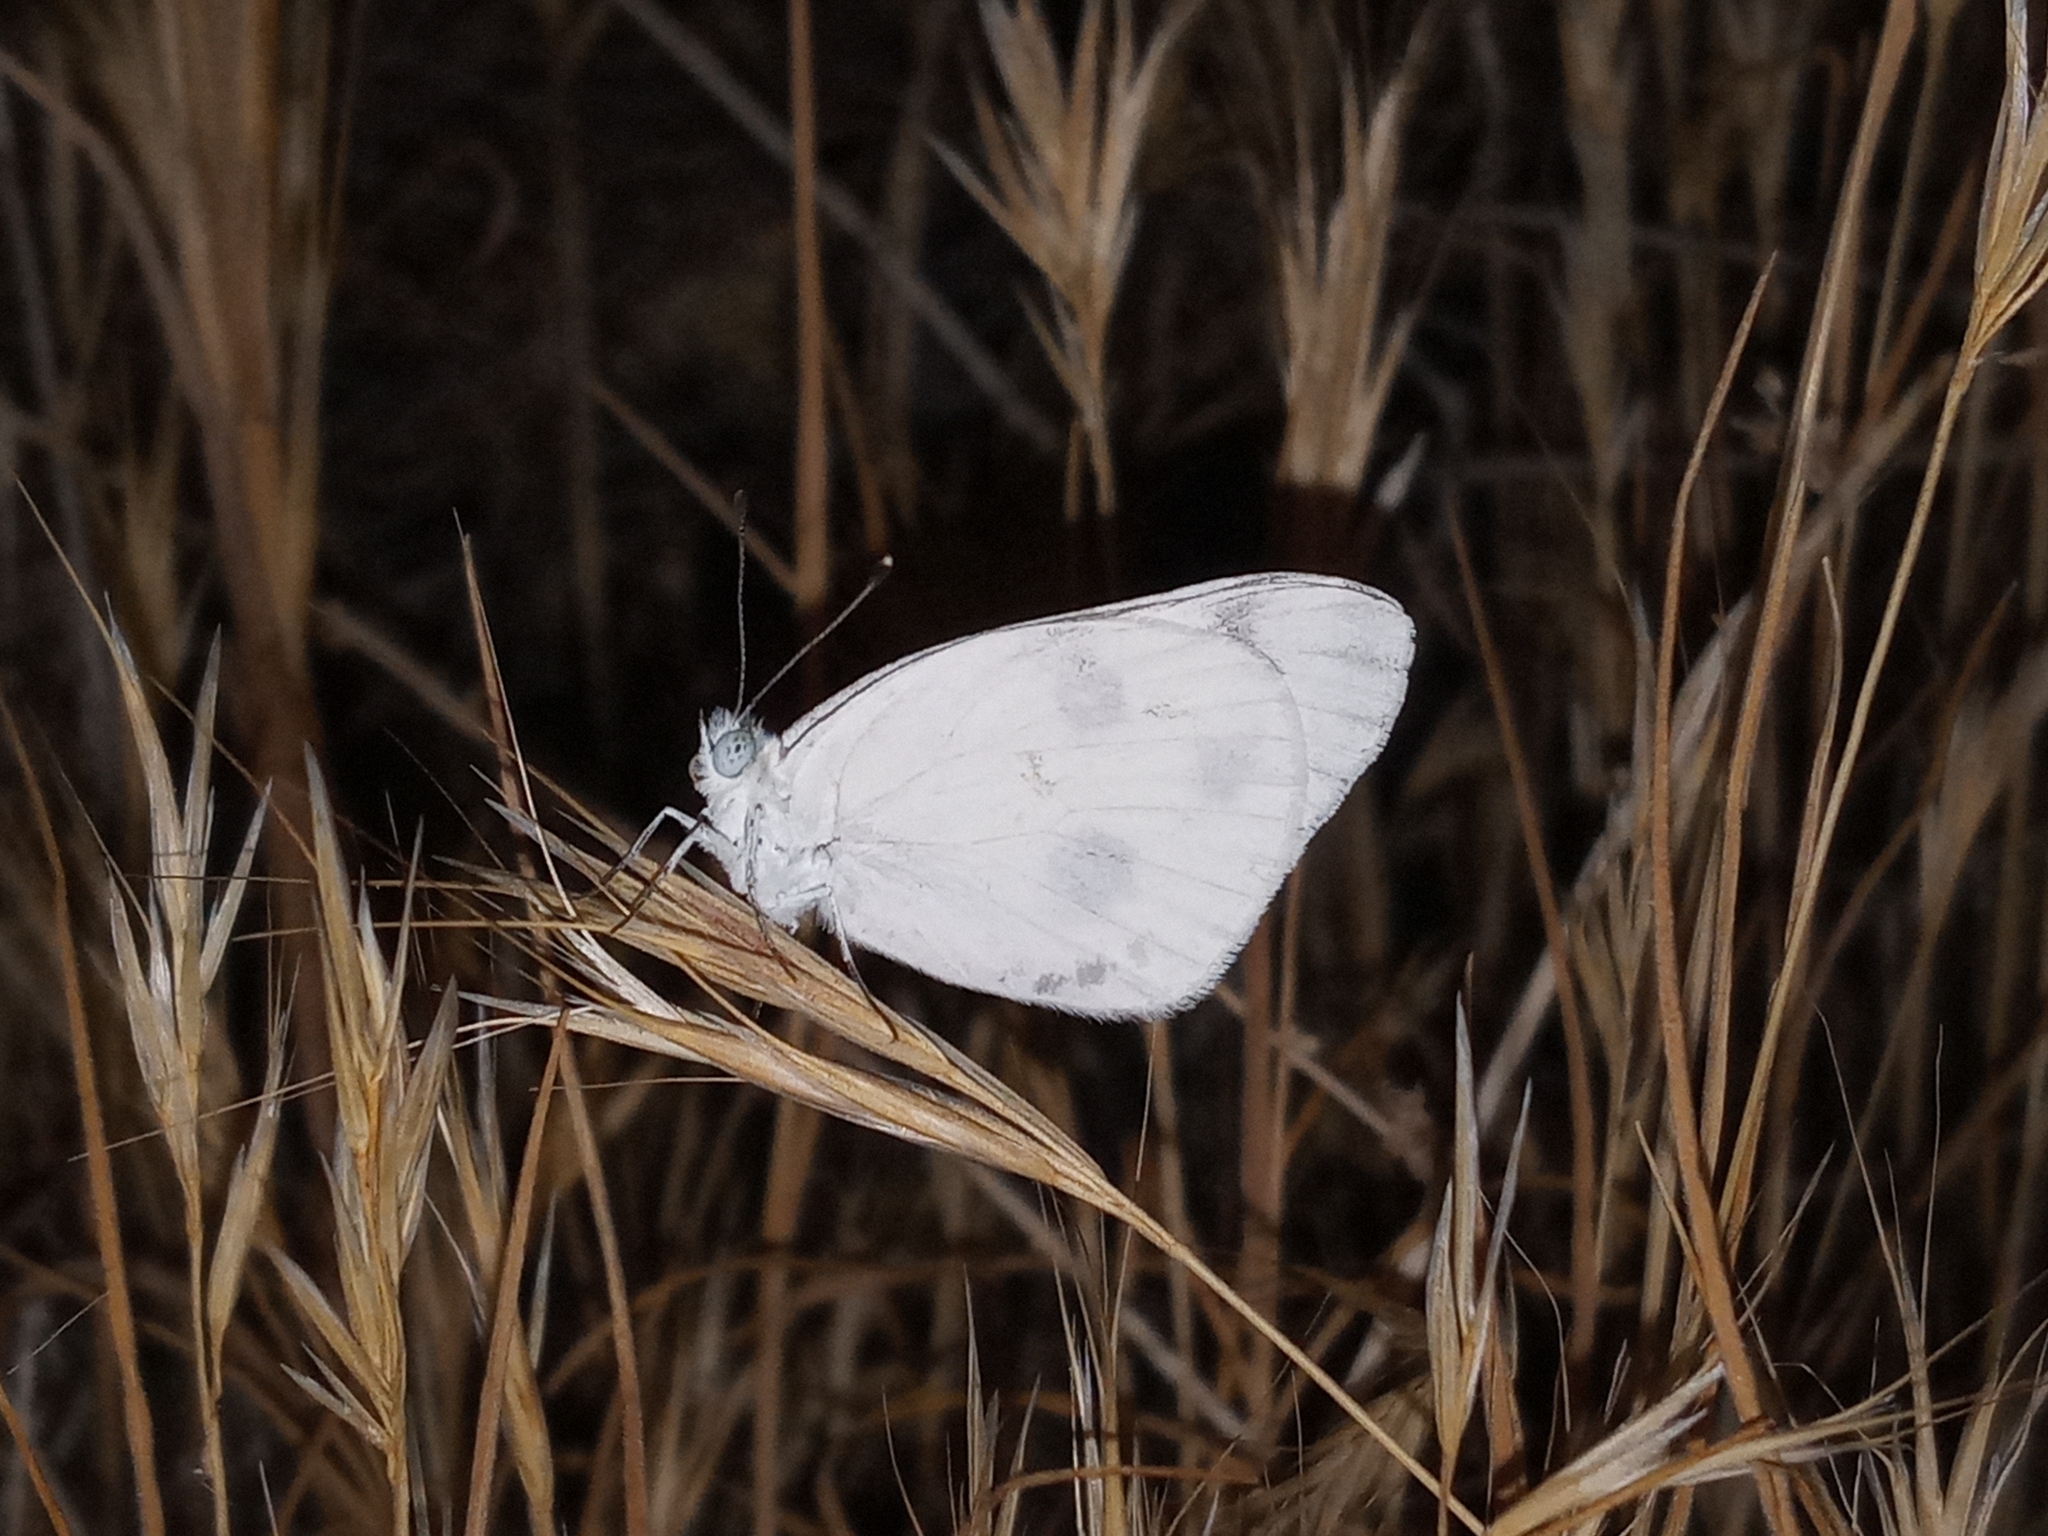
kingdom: Animalia
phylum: Arthropoda
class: Insecta
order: Lepidoptera
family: Pieridae
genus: Pontia
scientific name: Pontia protodice
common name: Checkered white
